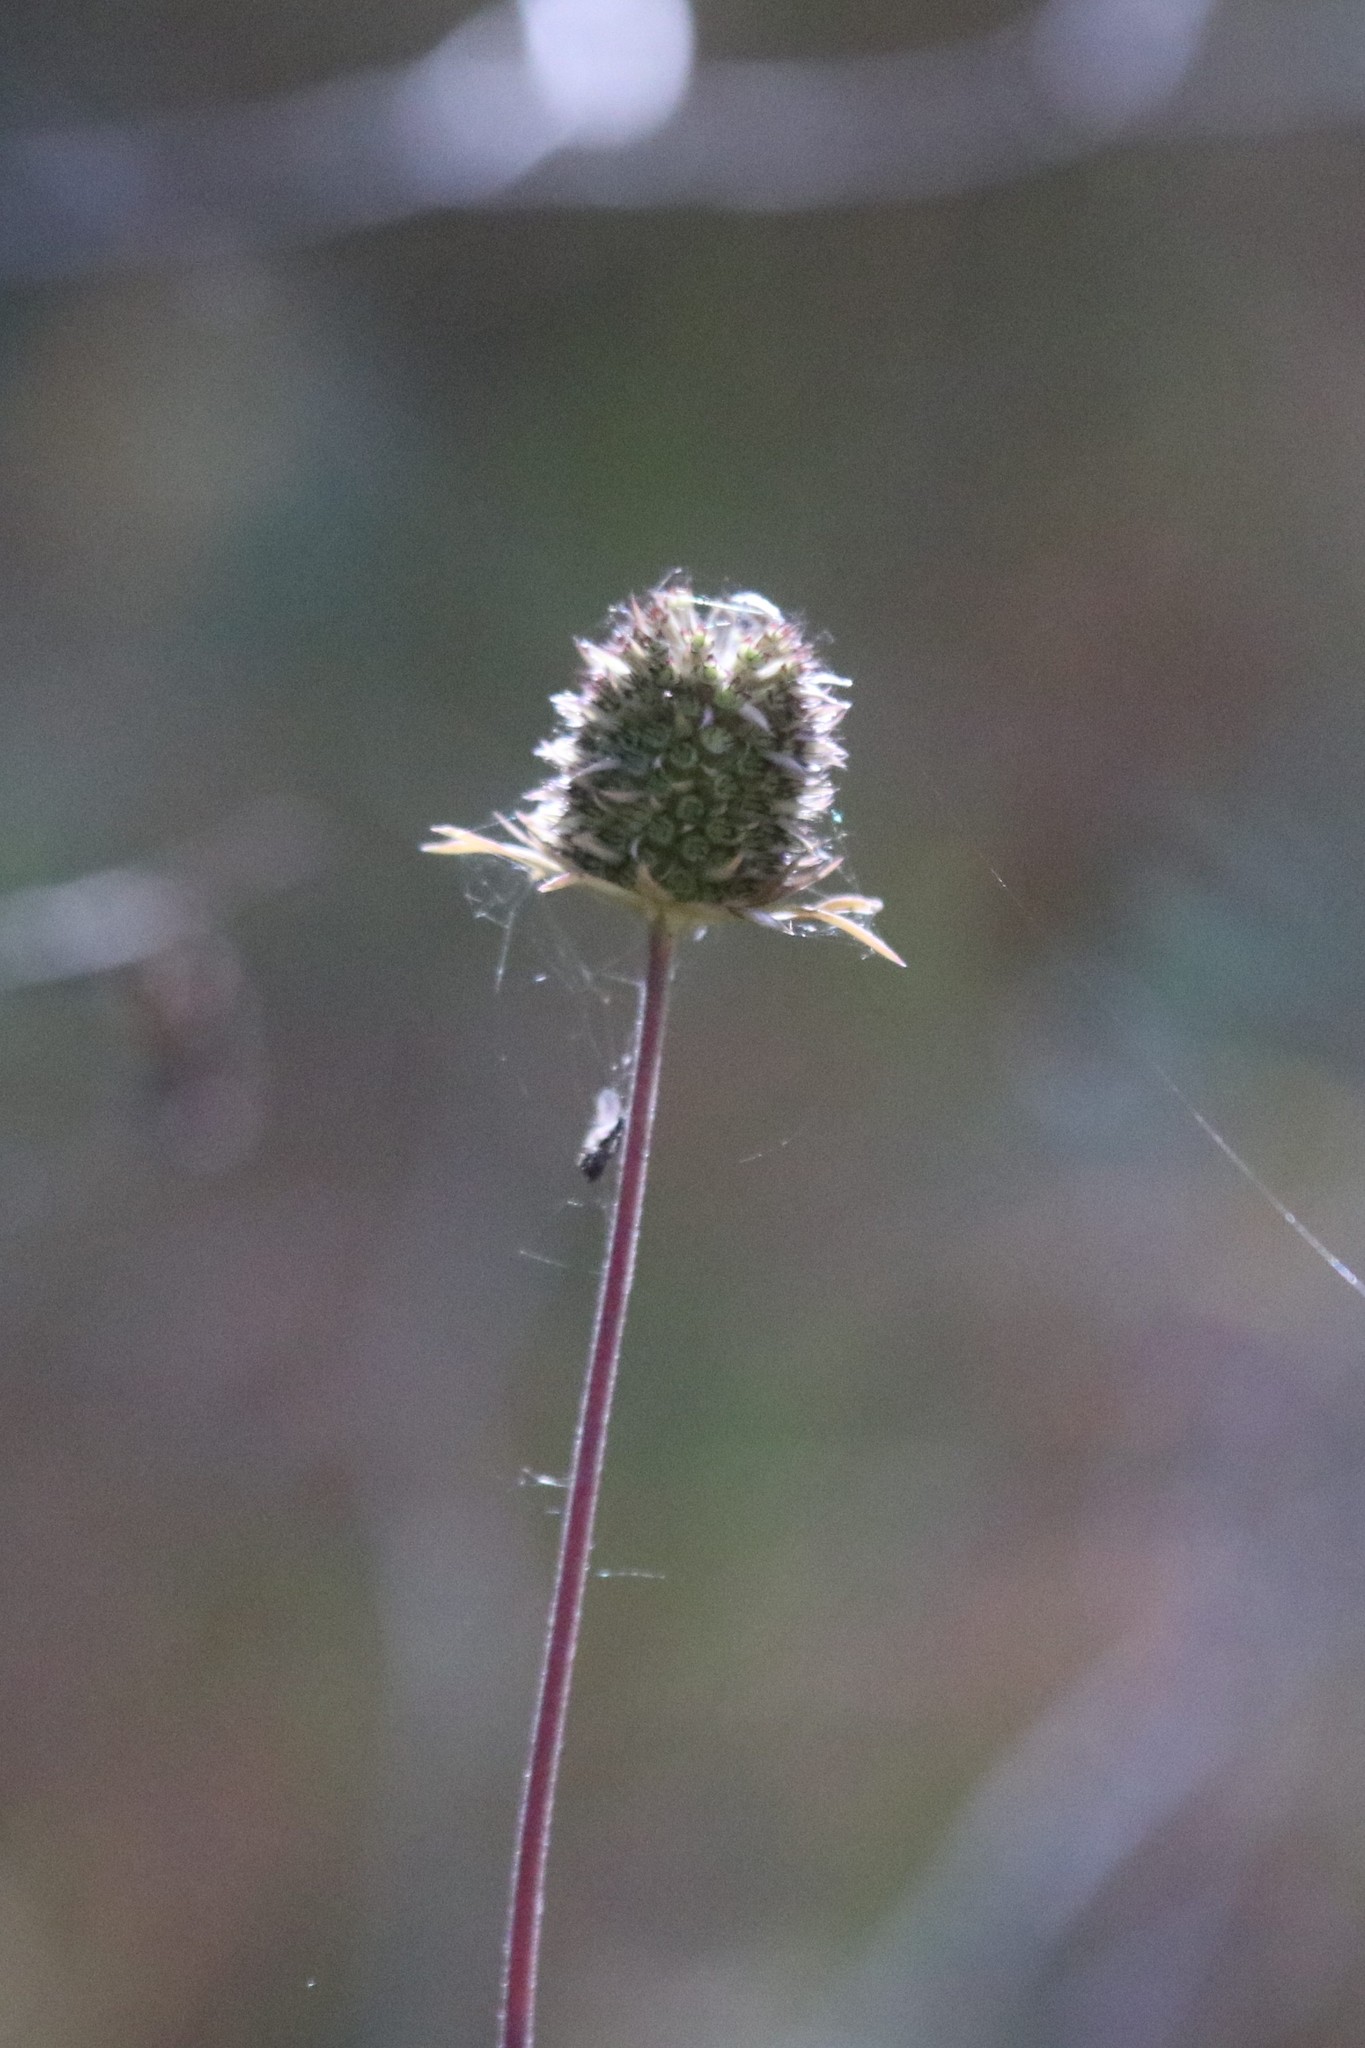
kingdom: Plantae
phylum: Tracheophyta
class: Magnoliopsida
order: Dipsacales
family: Caprifoliaceae
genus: Succisa
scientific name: Succisa pratensis
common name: Devil's-bit
